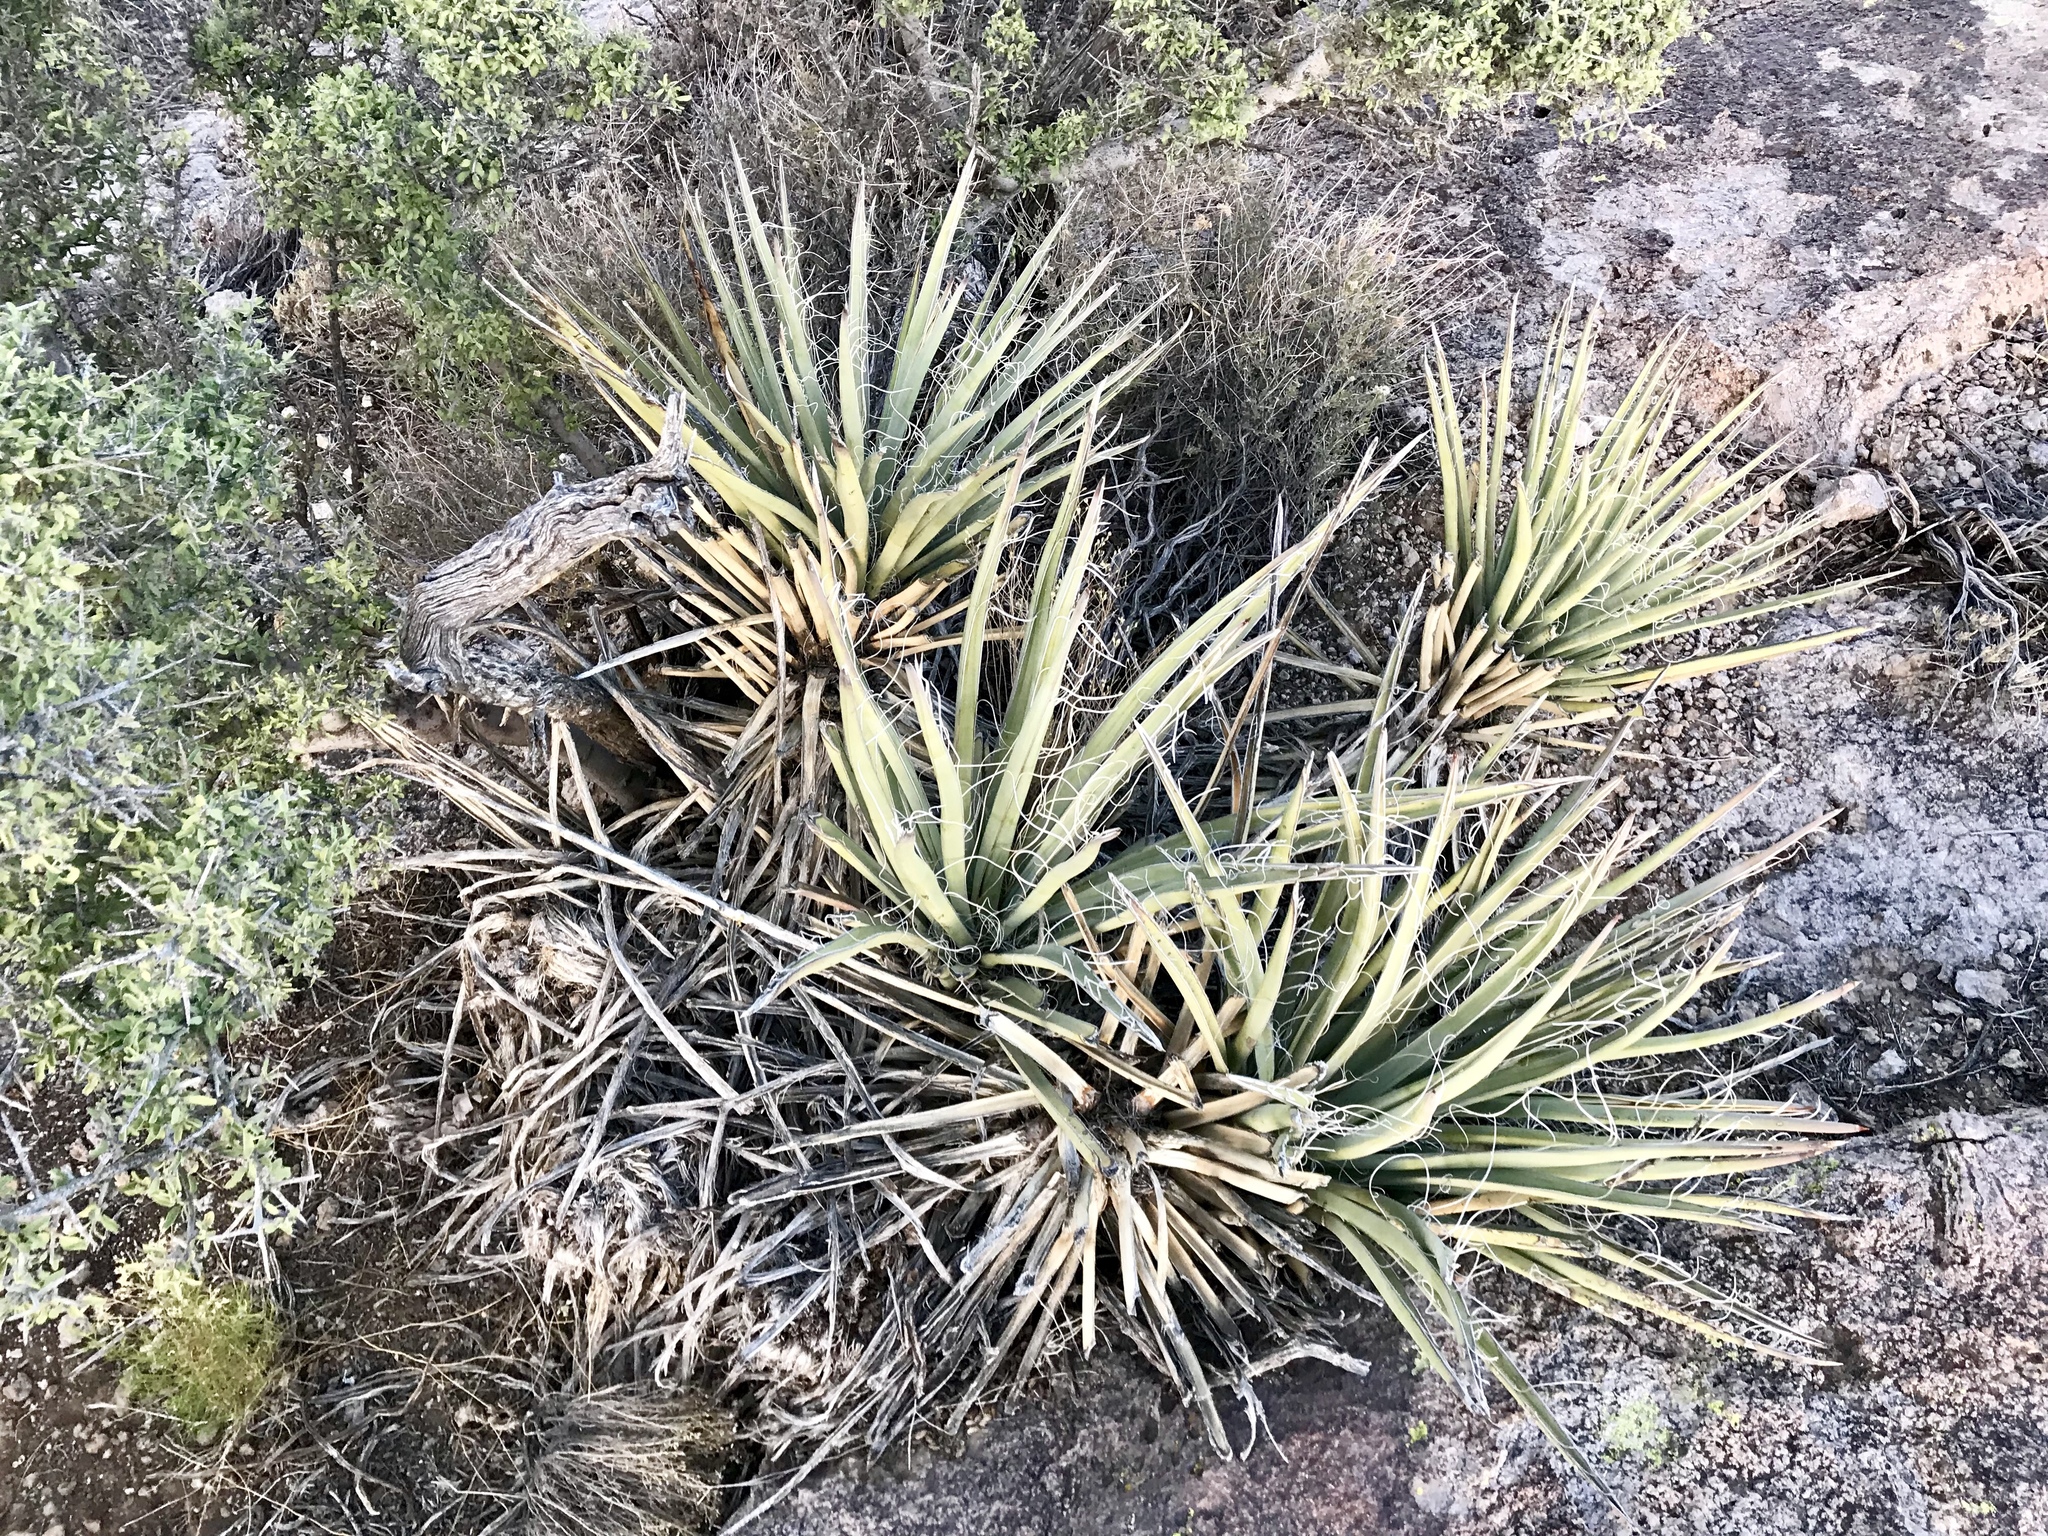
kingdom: Plantae
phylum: Tracheophyta
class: Liliopsida
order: Asparagales
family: Asparagaceae
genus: Yucca
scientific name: Yucca baccata
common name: Banana yucca
